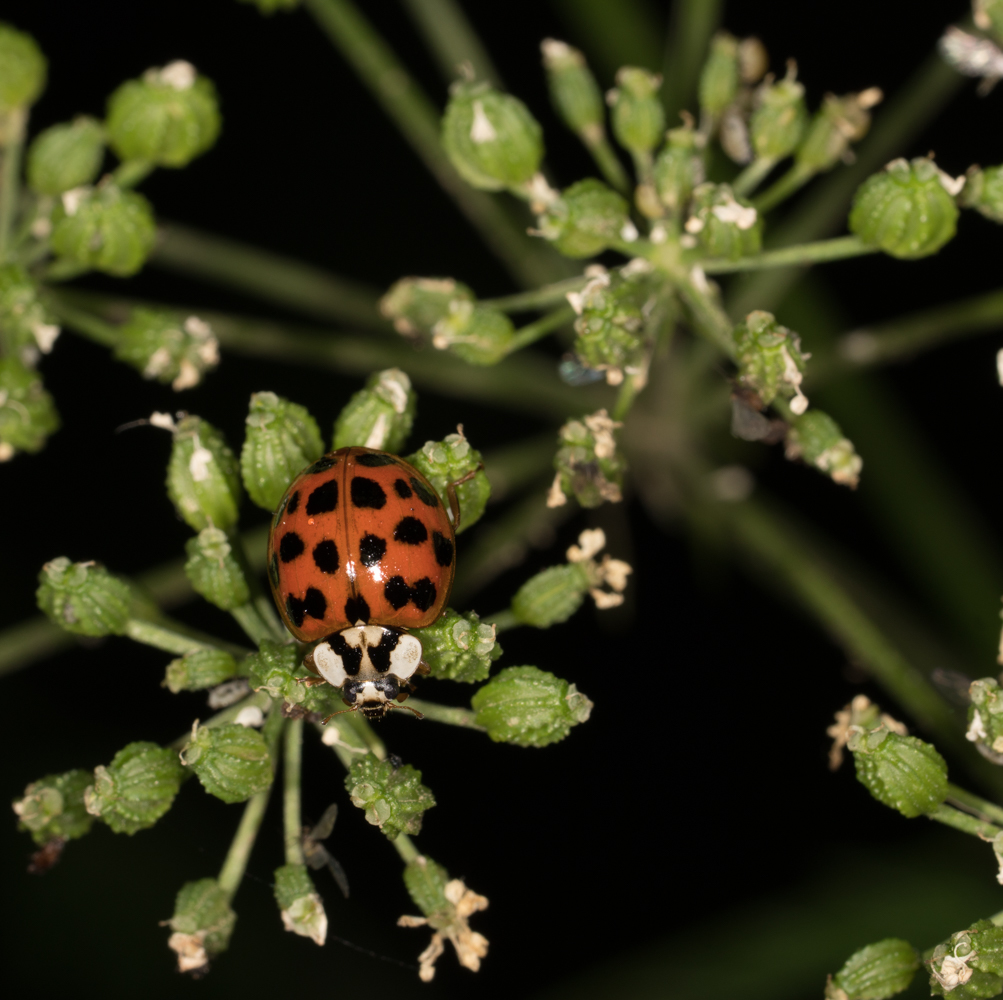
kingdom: Animalia
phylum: Arthropoda
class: Insecta
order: Coleoptera
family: Coccinellidae
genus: Harmonia
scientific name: Harmonia axyridis
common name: Harlequin ladybird
